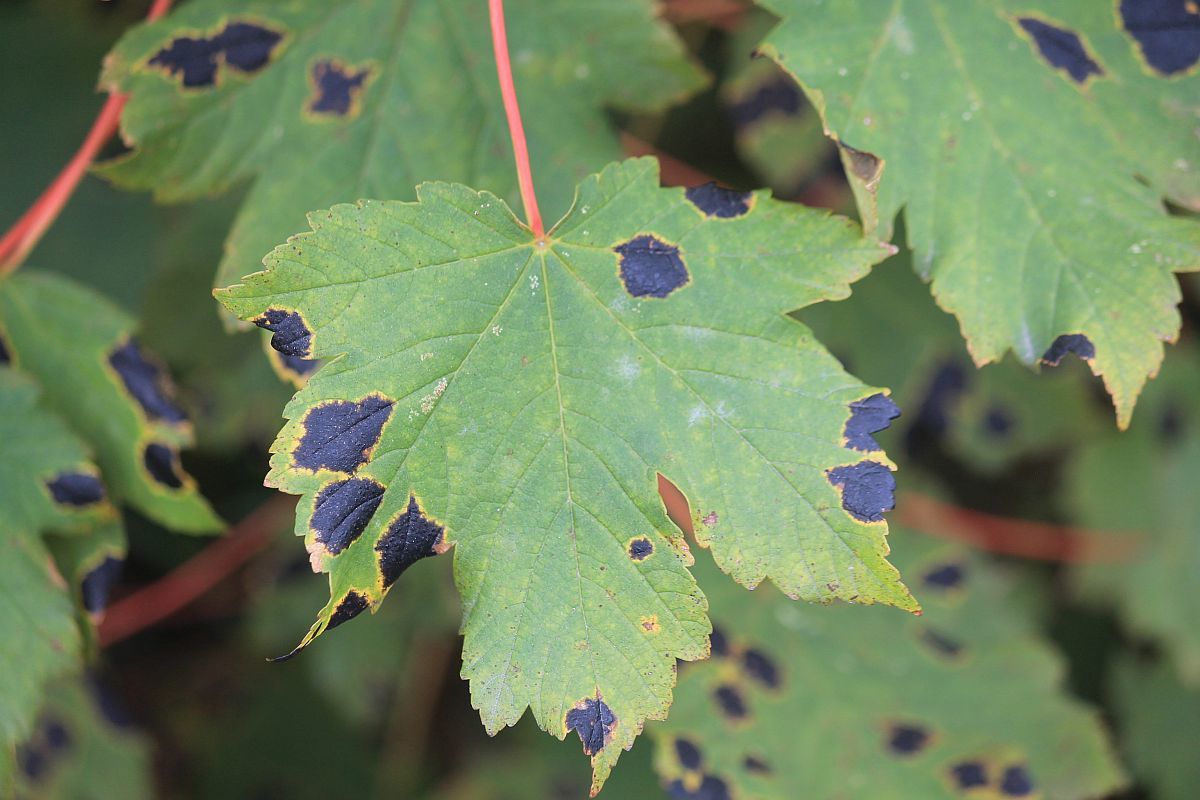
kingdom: Fungi
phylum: Ascomycota
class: Leotiomycetes
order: Rhytismatales
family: Rhytismataceae
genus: Rhytisma
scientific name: Rhytisma acerinum
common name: European tar spot
